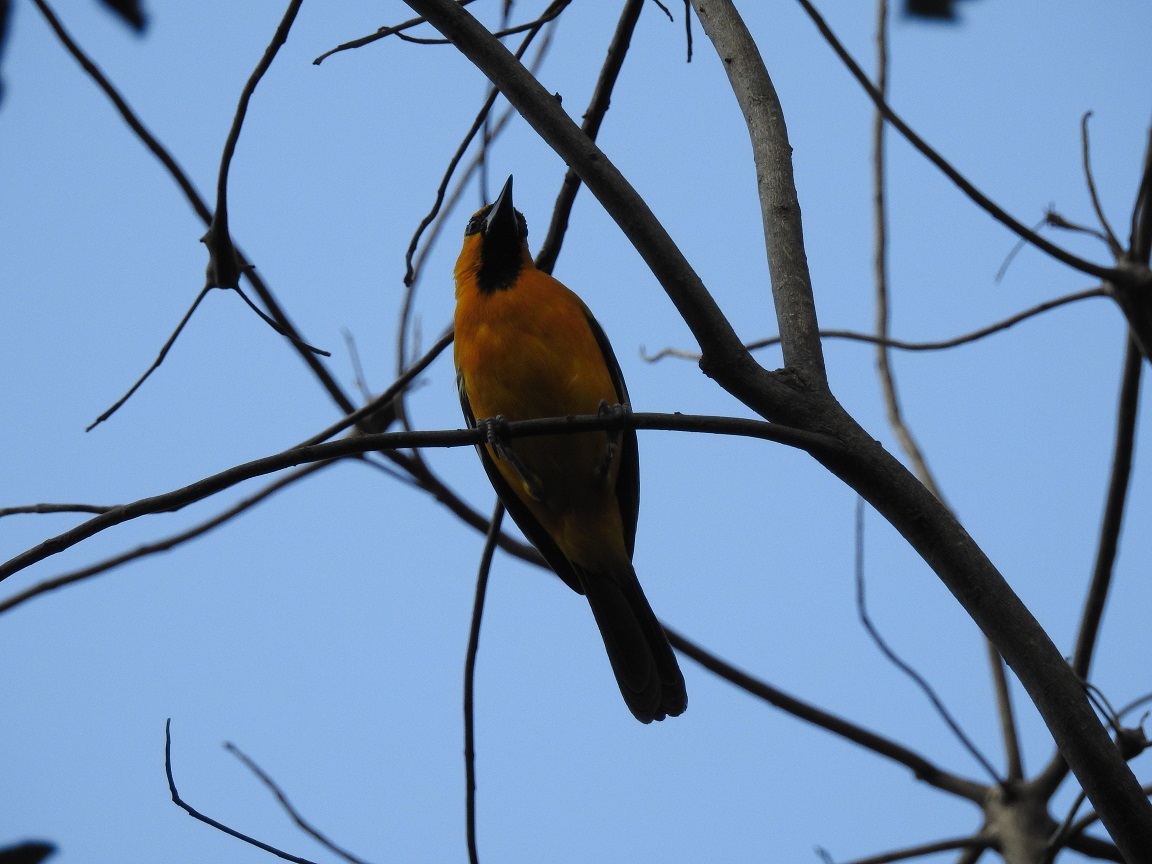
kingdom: Animalia
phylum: Chordata
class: Aves
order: Passeriformes
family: Icteridae
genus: Icterus
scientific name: Icterus gularis
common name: Altamira oriole
